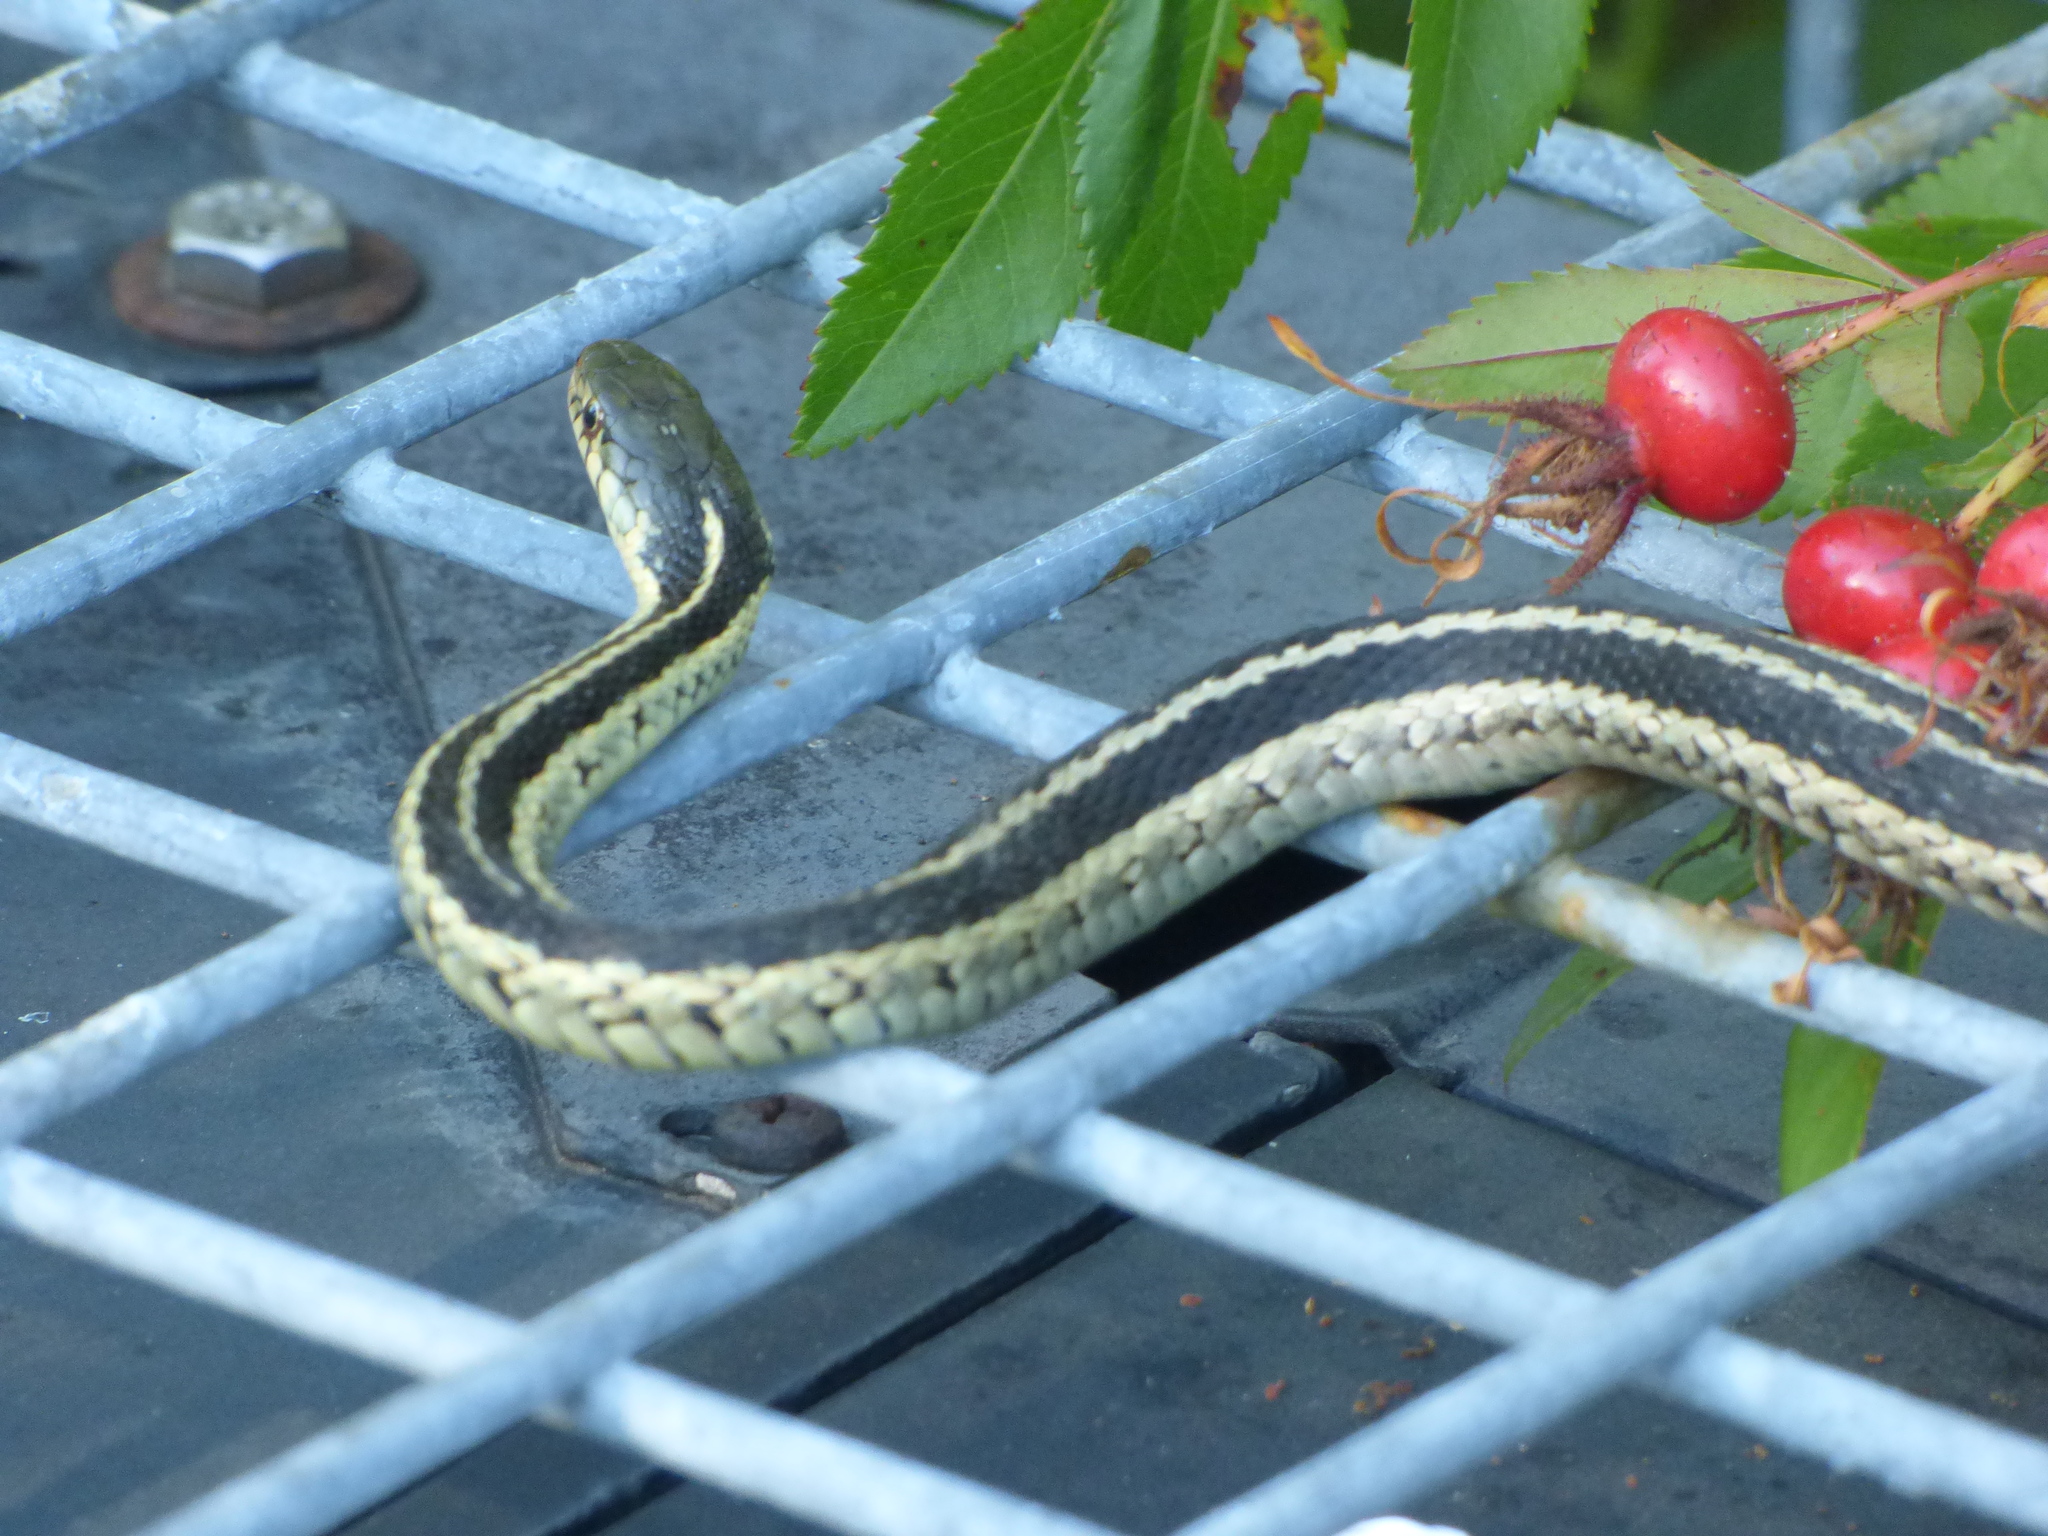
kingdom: Animalia
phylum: Chordata
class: Squamata
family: Colubridae
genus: Thamnophis
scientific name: Thamnophis sirtalis
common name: Common garter snake
